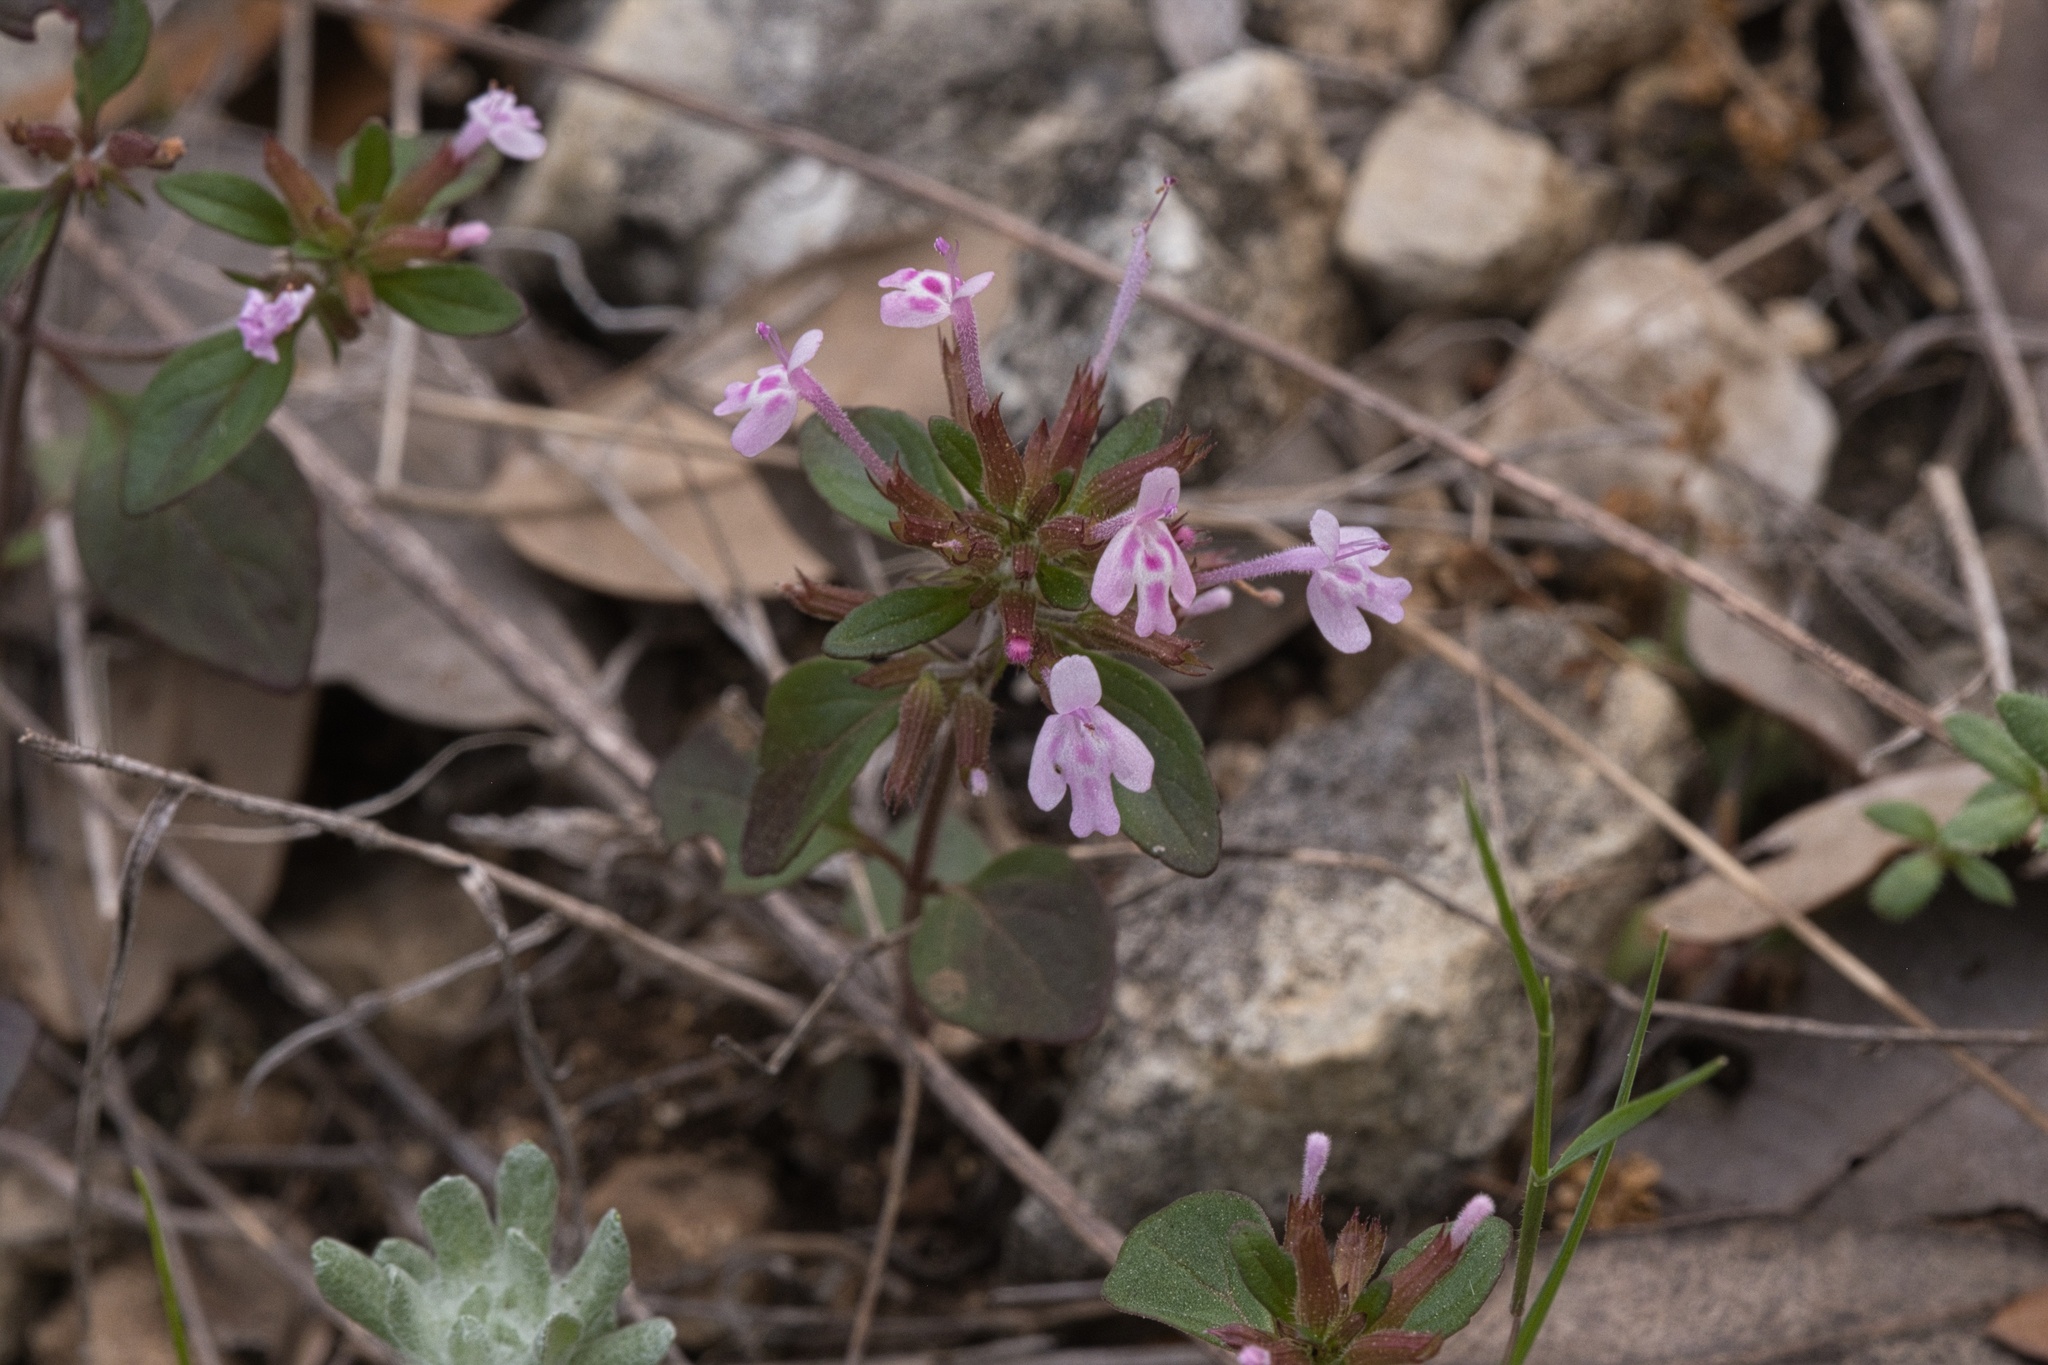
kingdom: Plantae
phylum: Tracheophyta
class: Magnoliopsida
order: Lamiales
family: Lamiaceae
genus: Hedeoma
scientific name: Hedeoma acinoides
